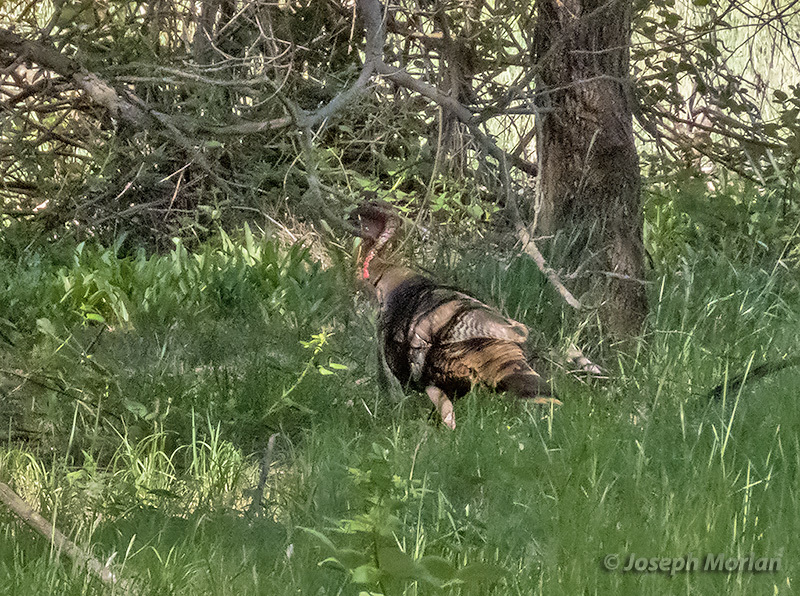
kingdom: Animalia
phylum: Chordata
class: Aves
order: Galliformes
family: Phasianidae
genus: Meleagris
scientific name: Meleagris gallopavo
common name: Wild turkey
